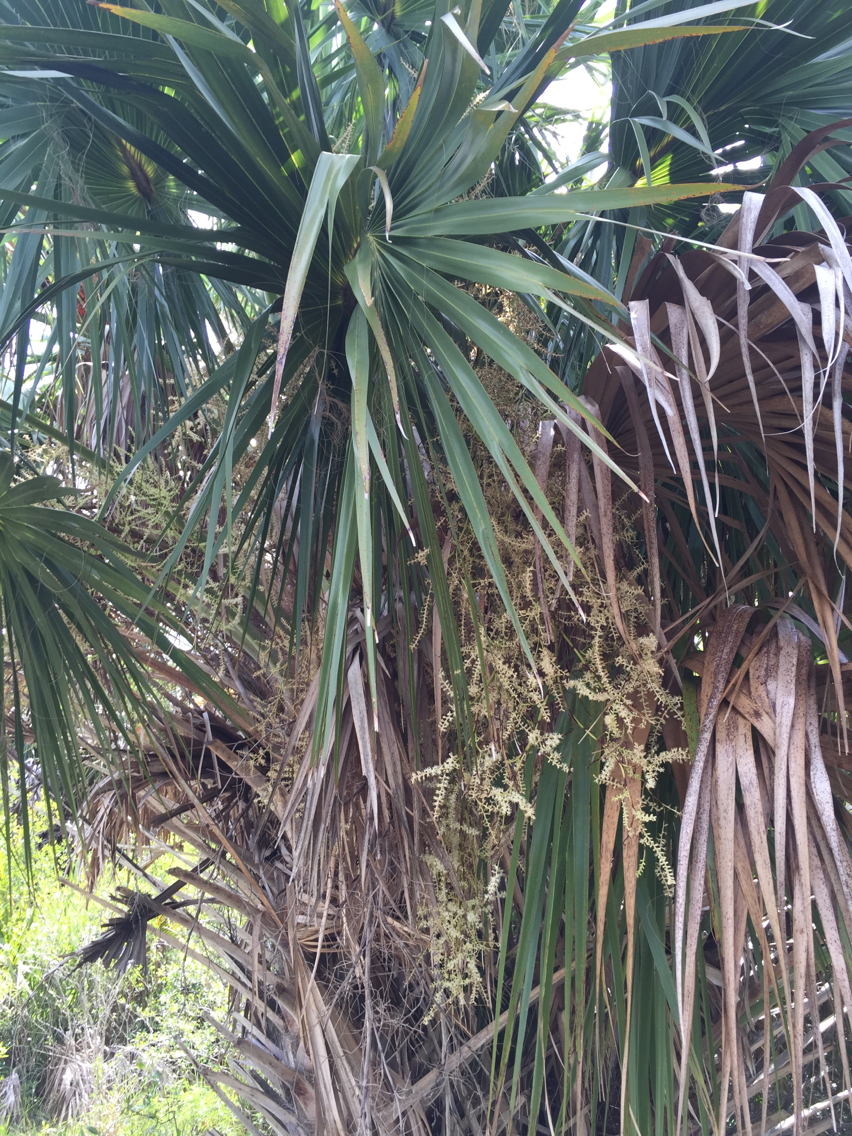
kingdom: Plantae
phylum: Tracheophyta
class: Liliopsida
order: Arecales
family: Arecaceae
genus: Sabal
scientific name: Sabal palmetto
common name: Blue palmetto
